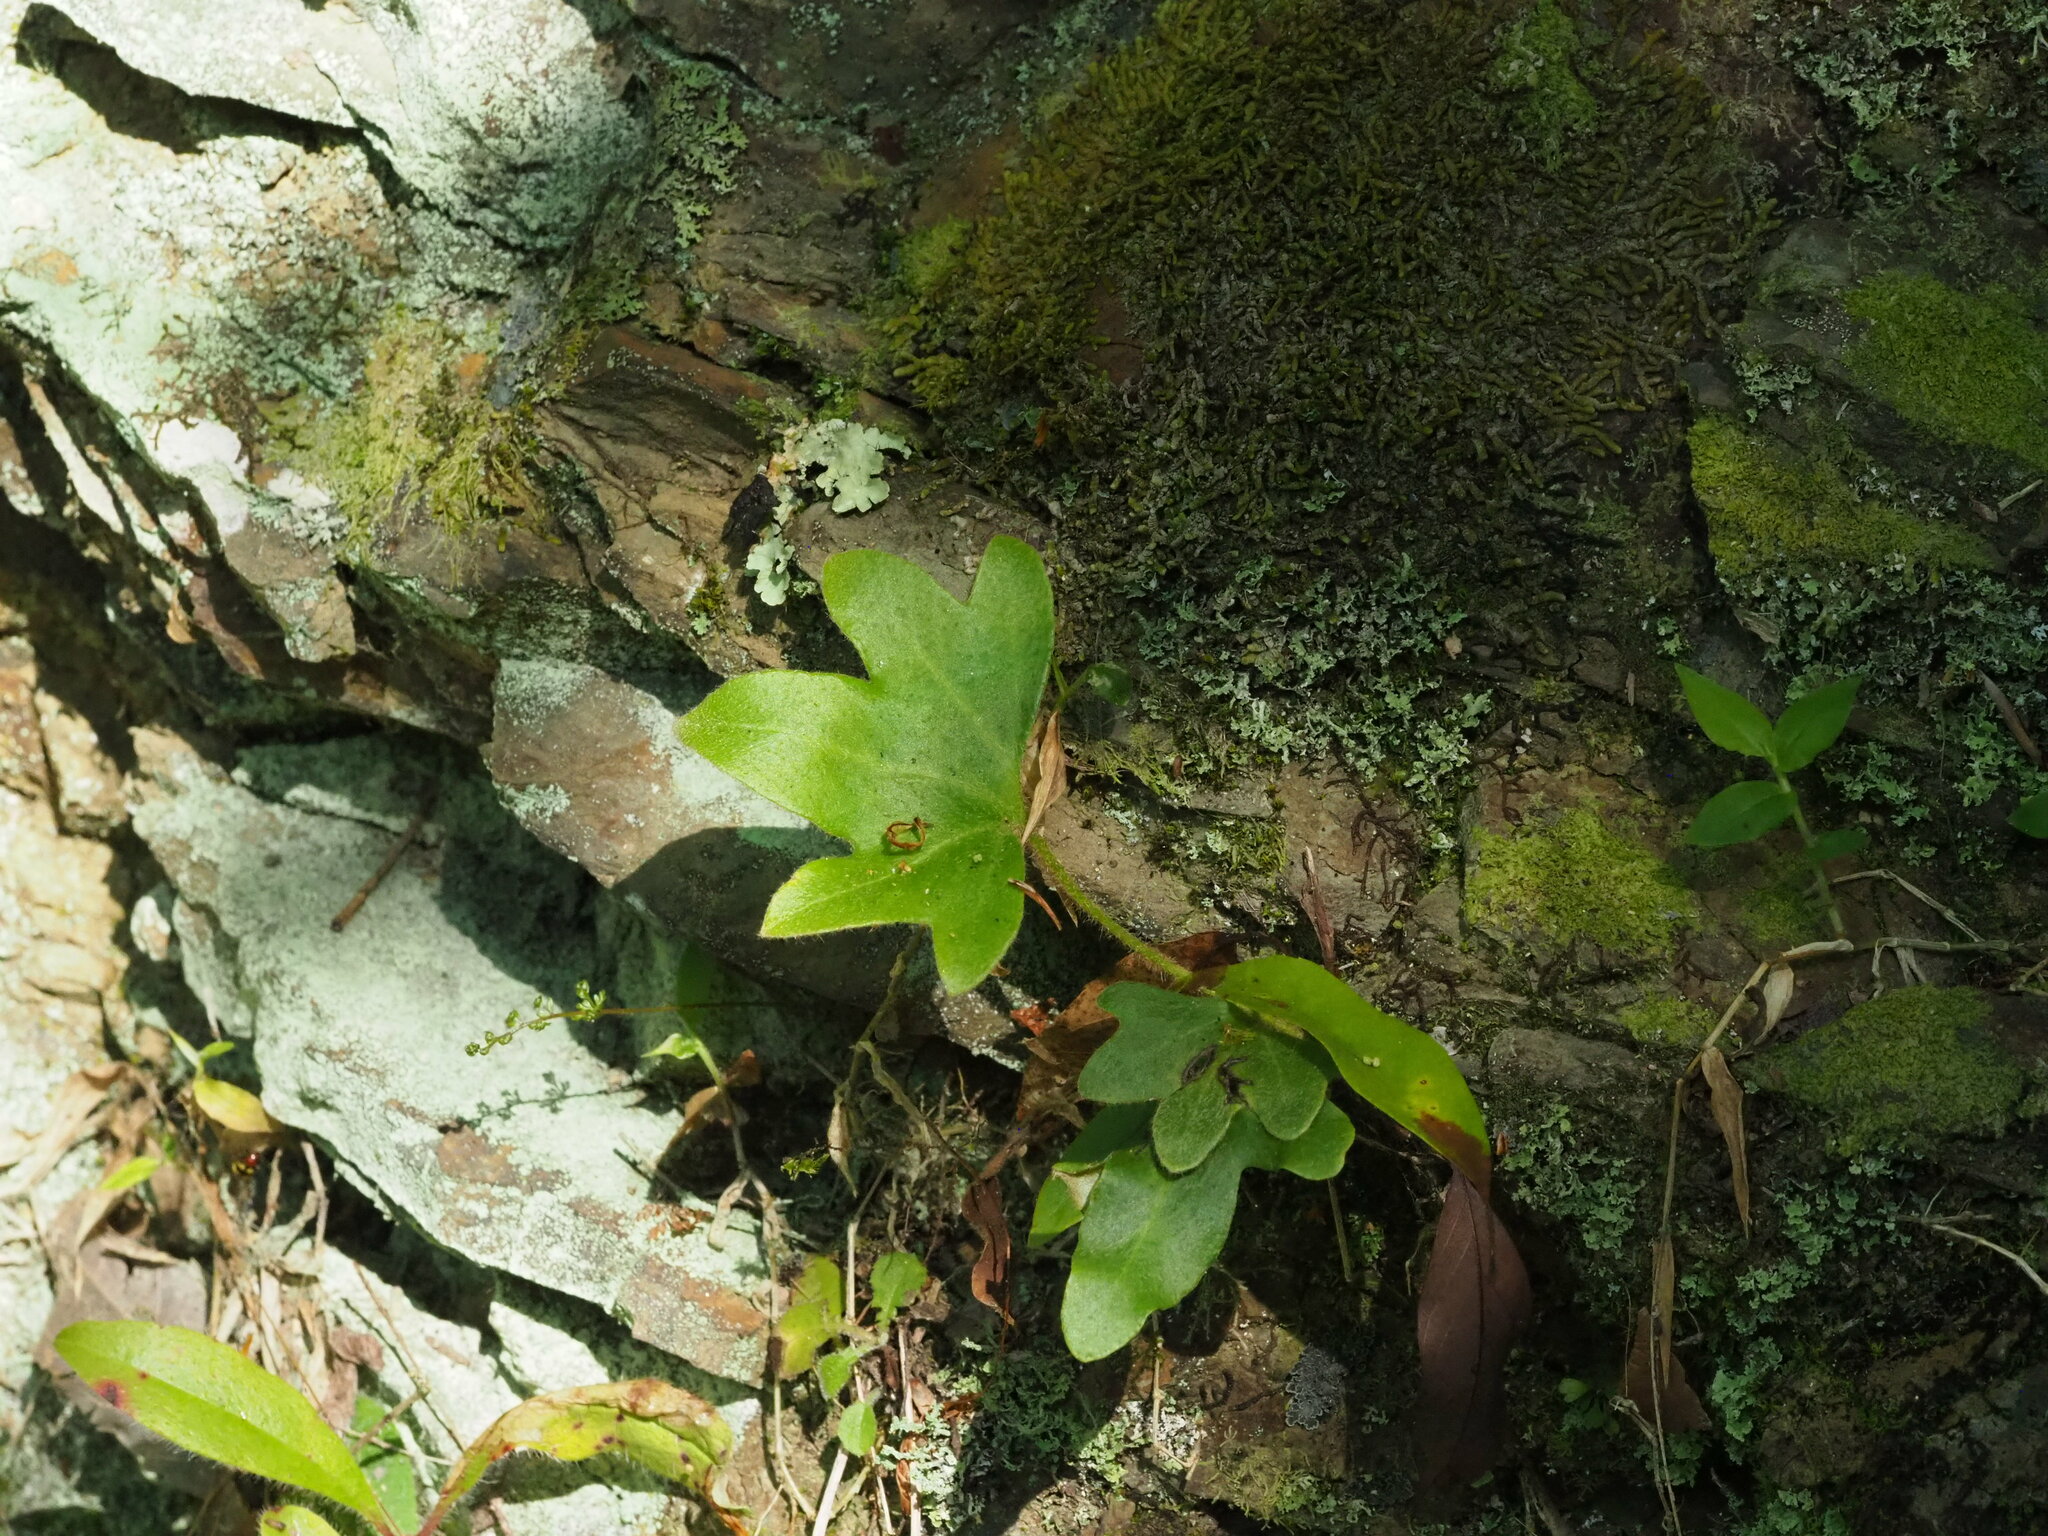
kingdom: Plantae
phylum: Tracheophyta
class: Polypodiopsida
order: Polypodiales
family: Polypodiaceae
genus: Pyrrosia
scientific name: Pyrrosia polydactyla
